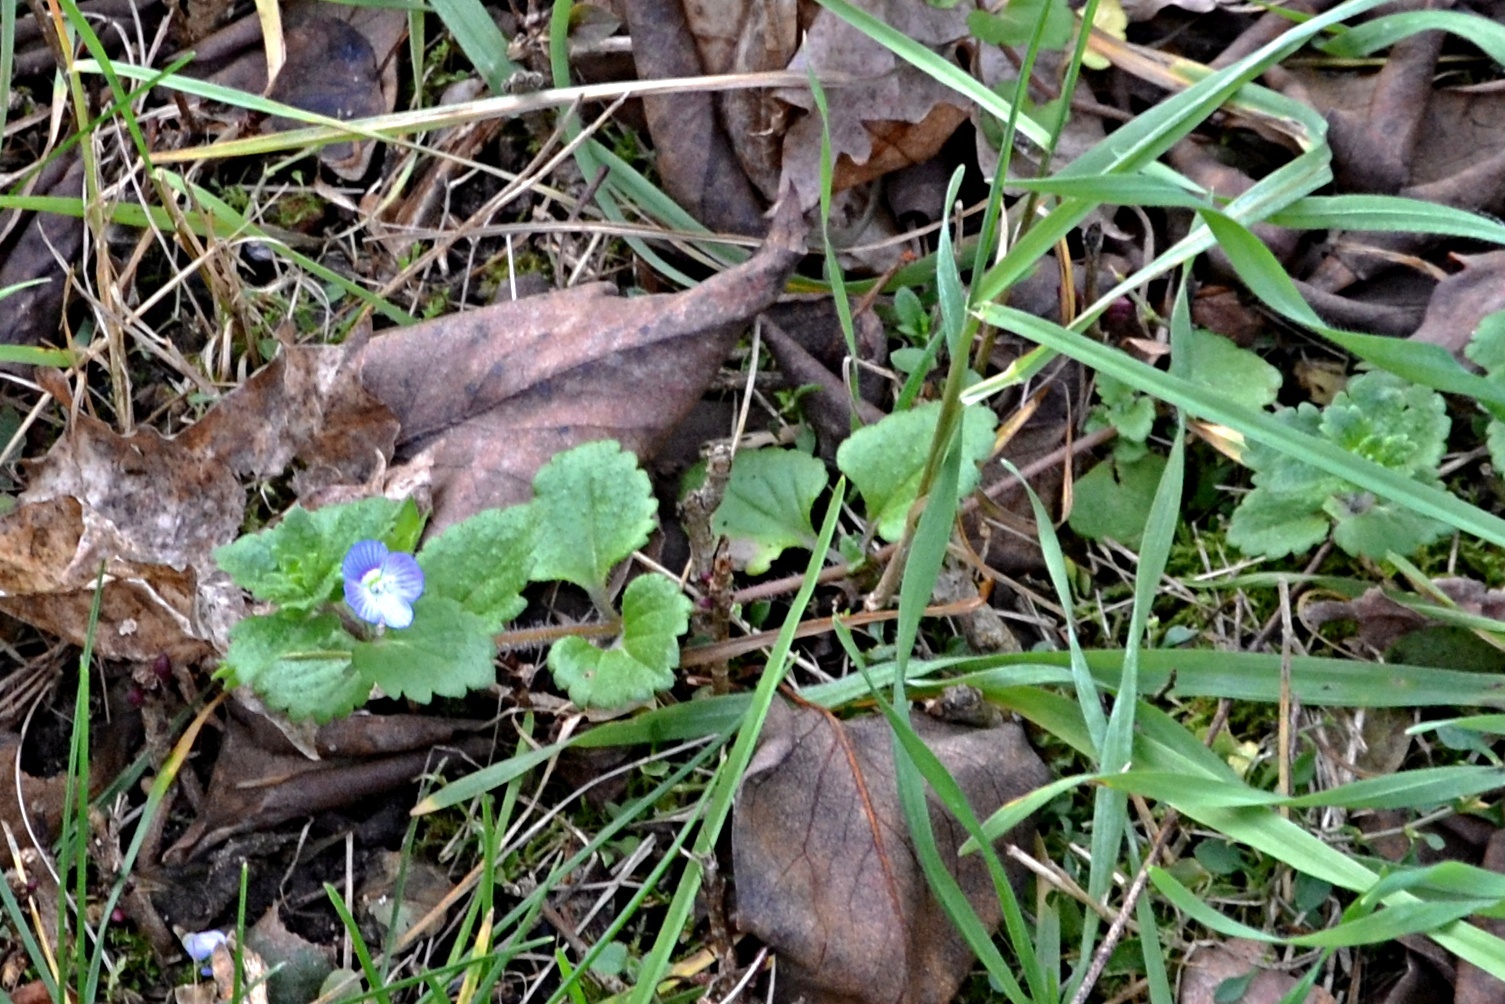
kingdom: Plantae
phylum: Tracheophyta
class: Magnoliopsida
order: Lamiales
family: Plantaginaceae
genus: Veronica
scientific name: Veronica persica
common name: Common field-speedwell
